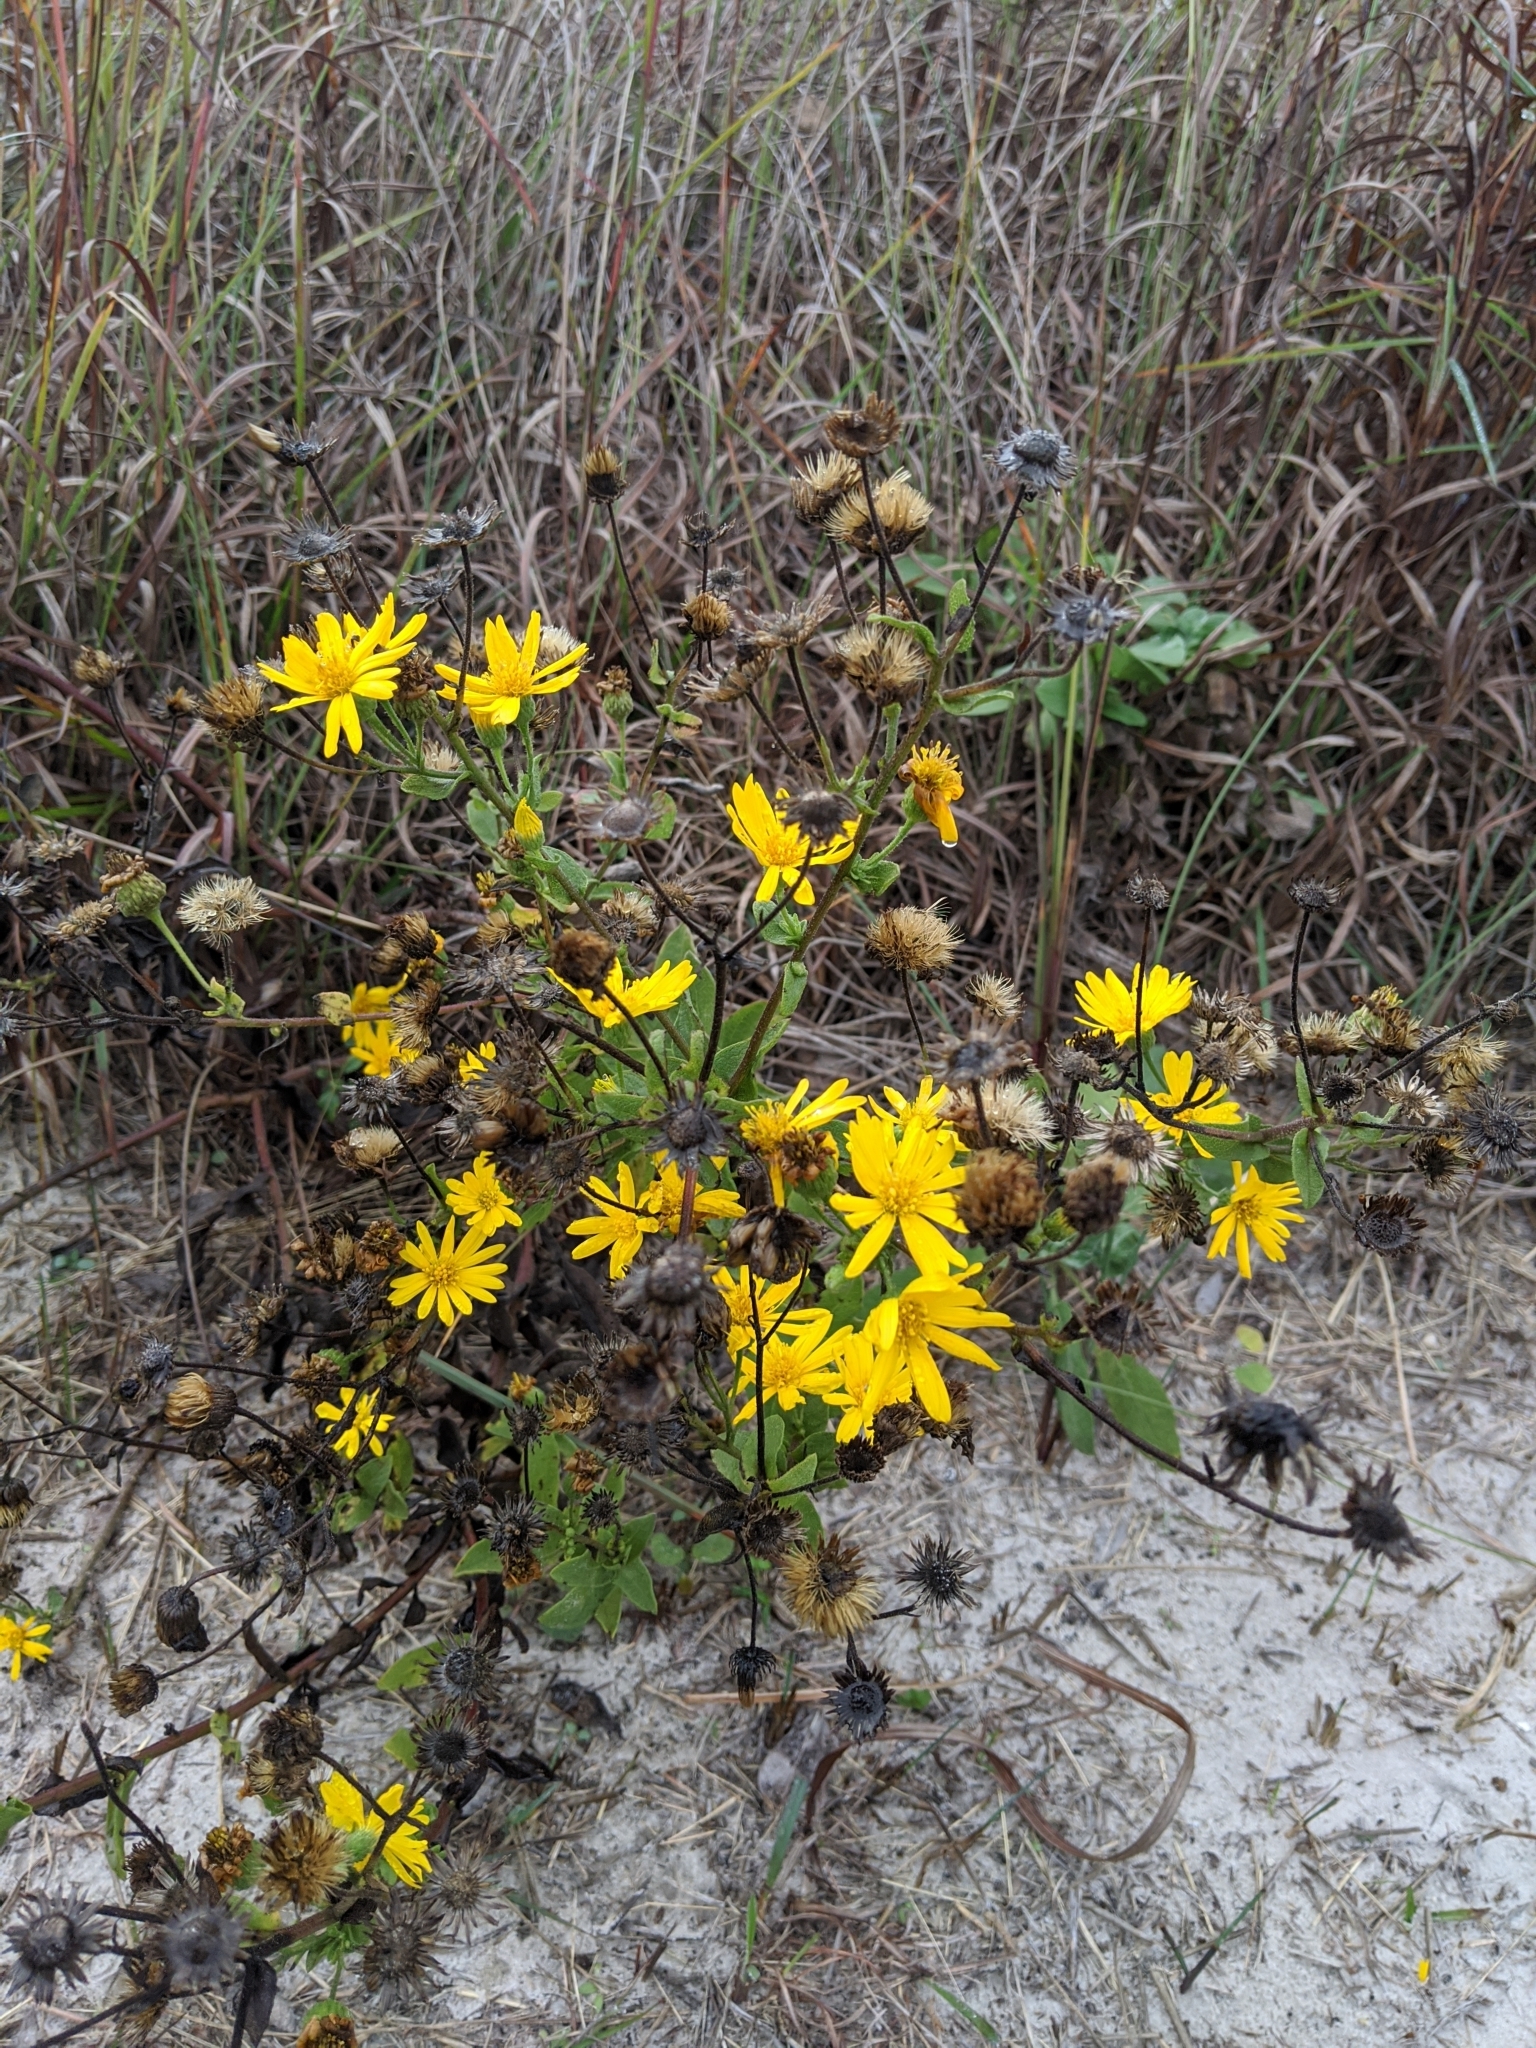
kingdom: Plantae
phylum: Tracheophyta
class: Magnoliopsida
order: Asterales
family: Asteraceae
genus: Heterotheca
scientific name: Heterotheca subaxillaris
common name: Camphorweed
